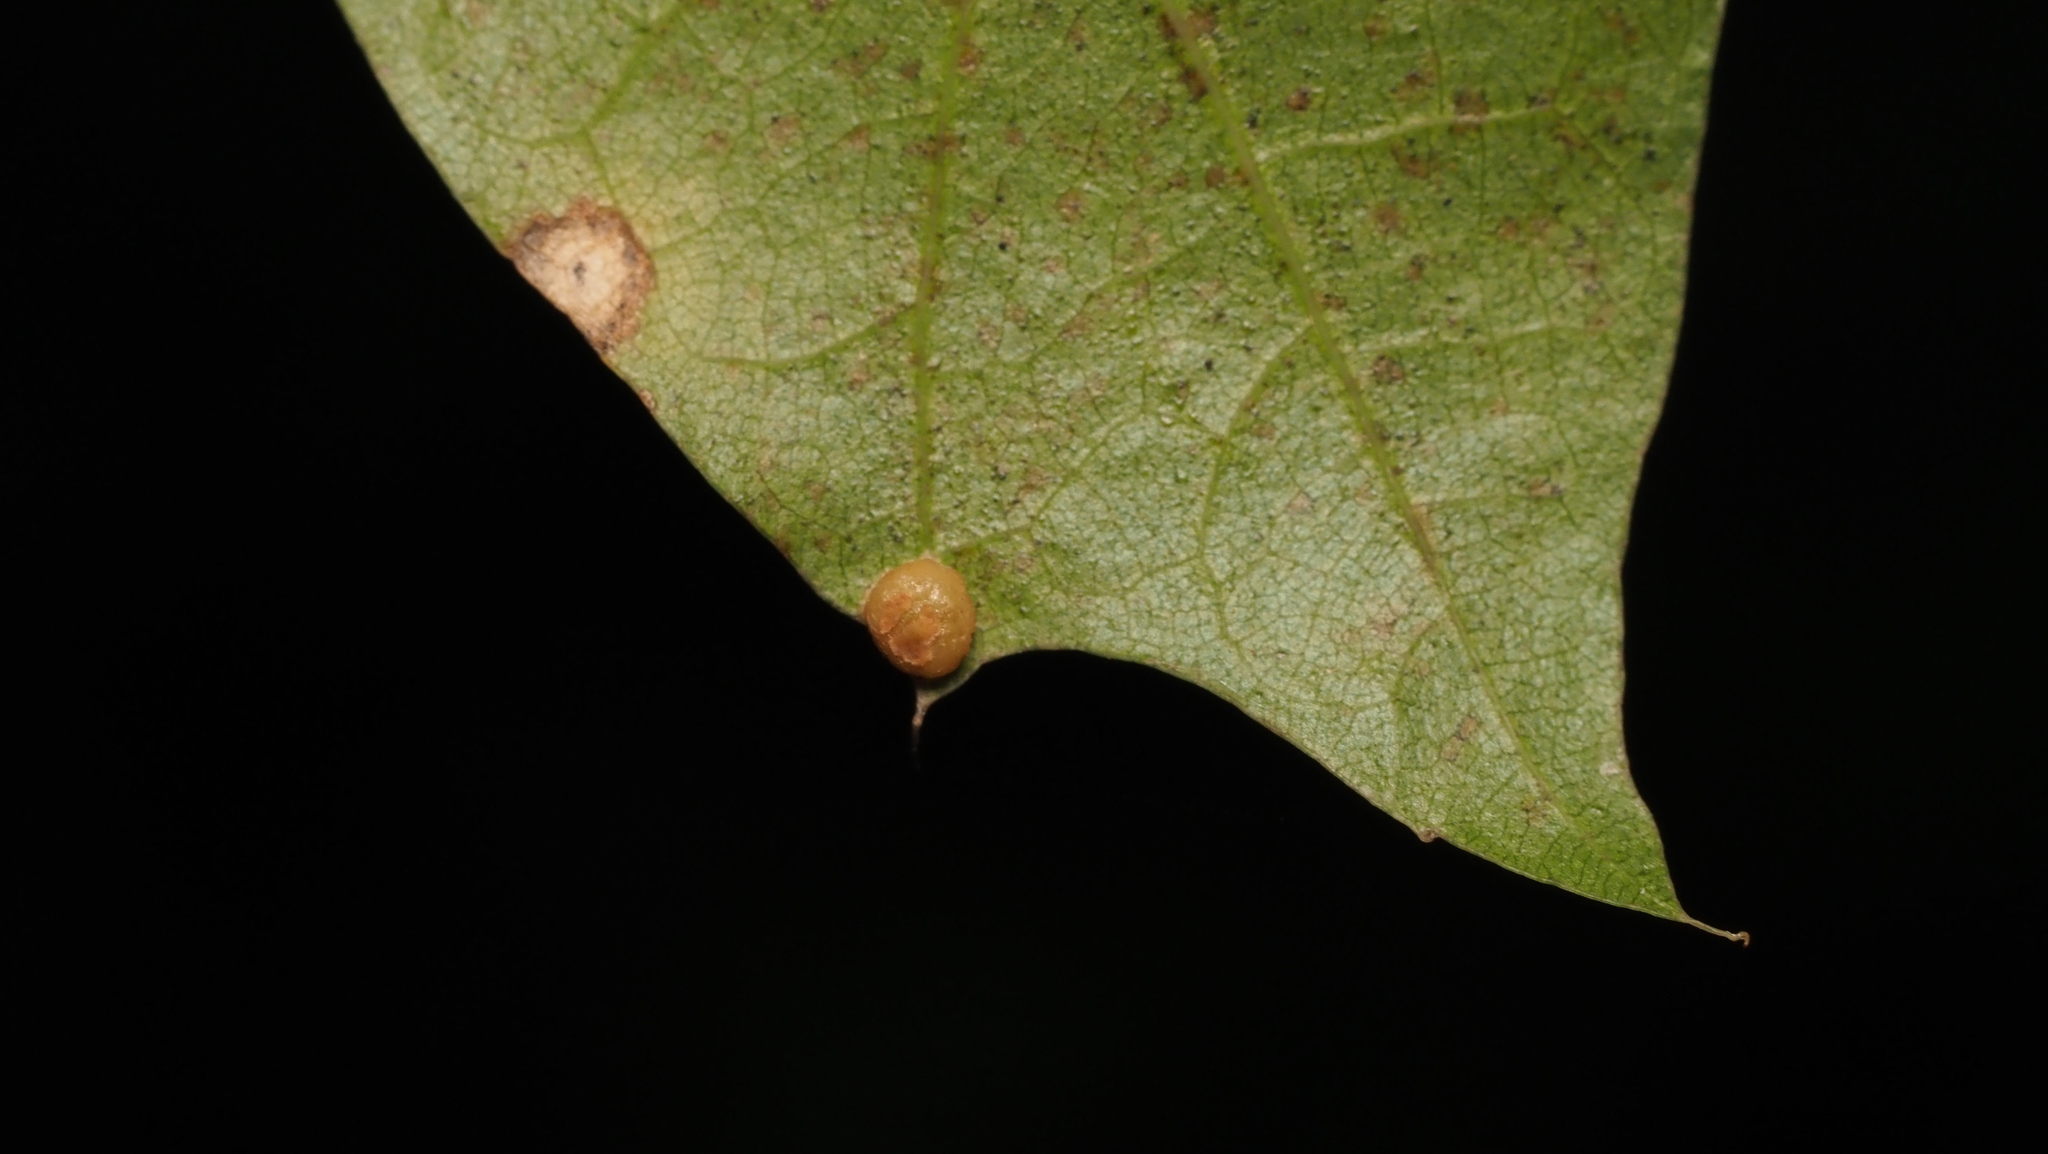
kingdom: Animalia
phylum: Arthropoda
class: Insecta
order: Diptera
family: Cecidomyiidae
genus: Polystepha
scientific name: Polystepha globosa
